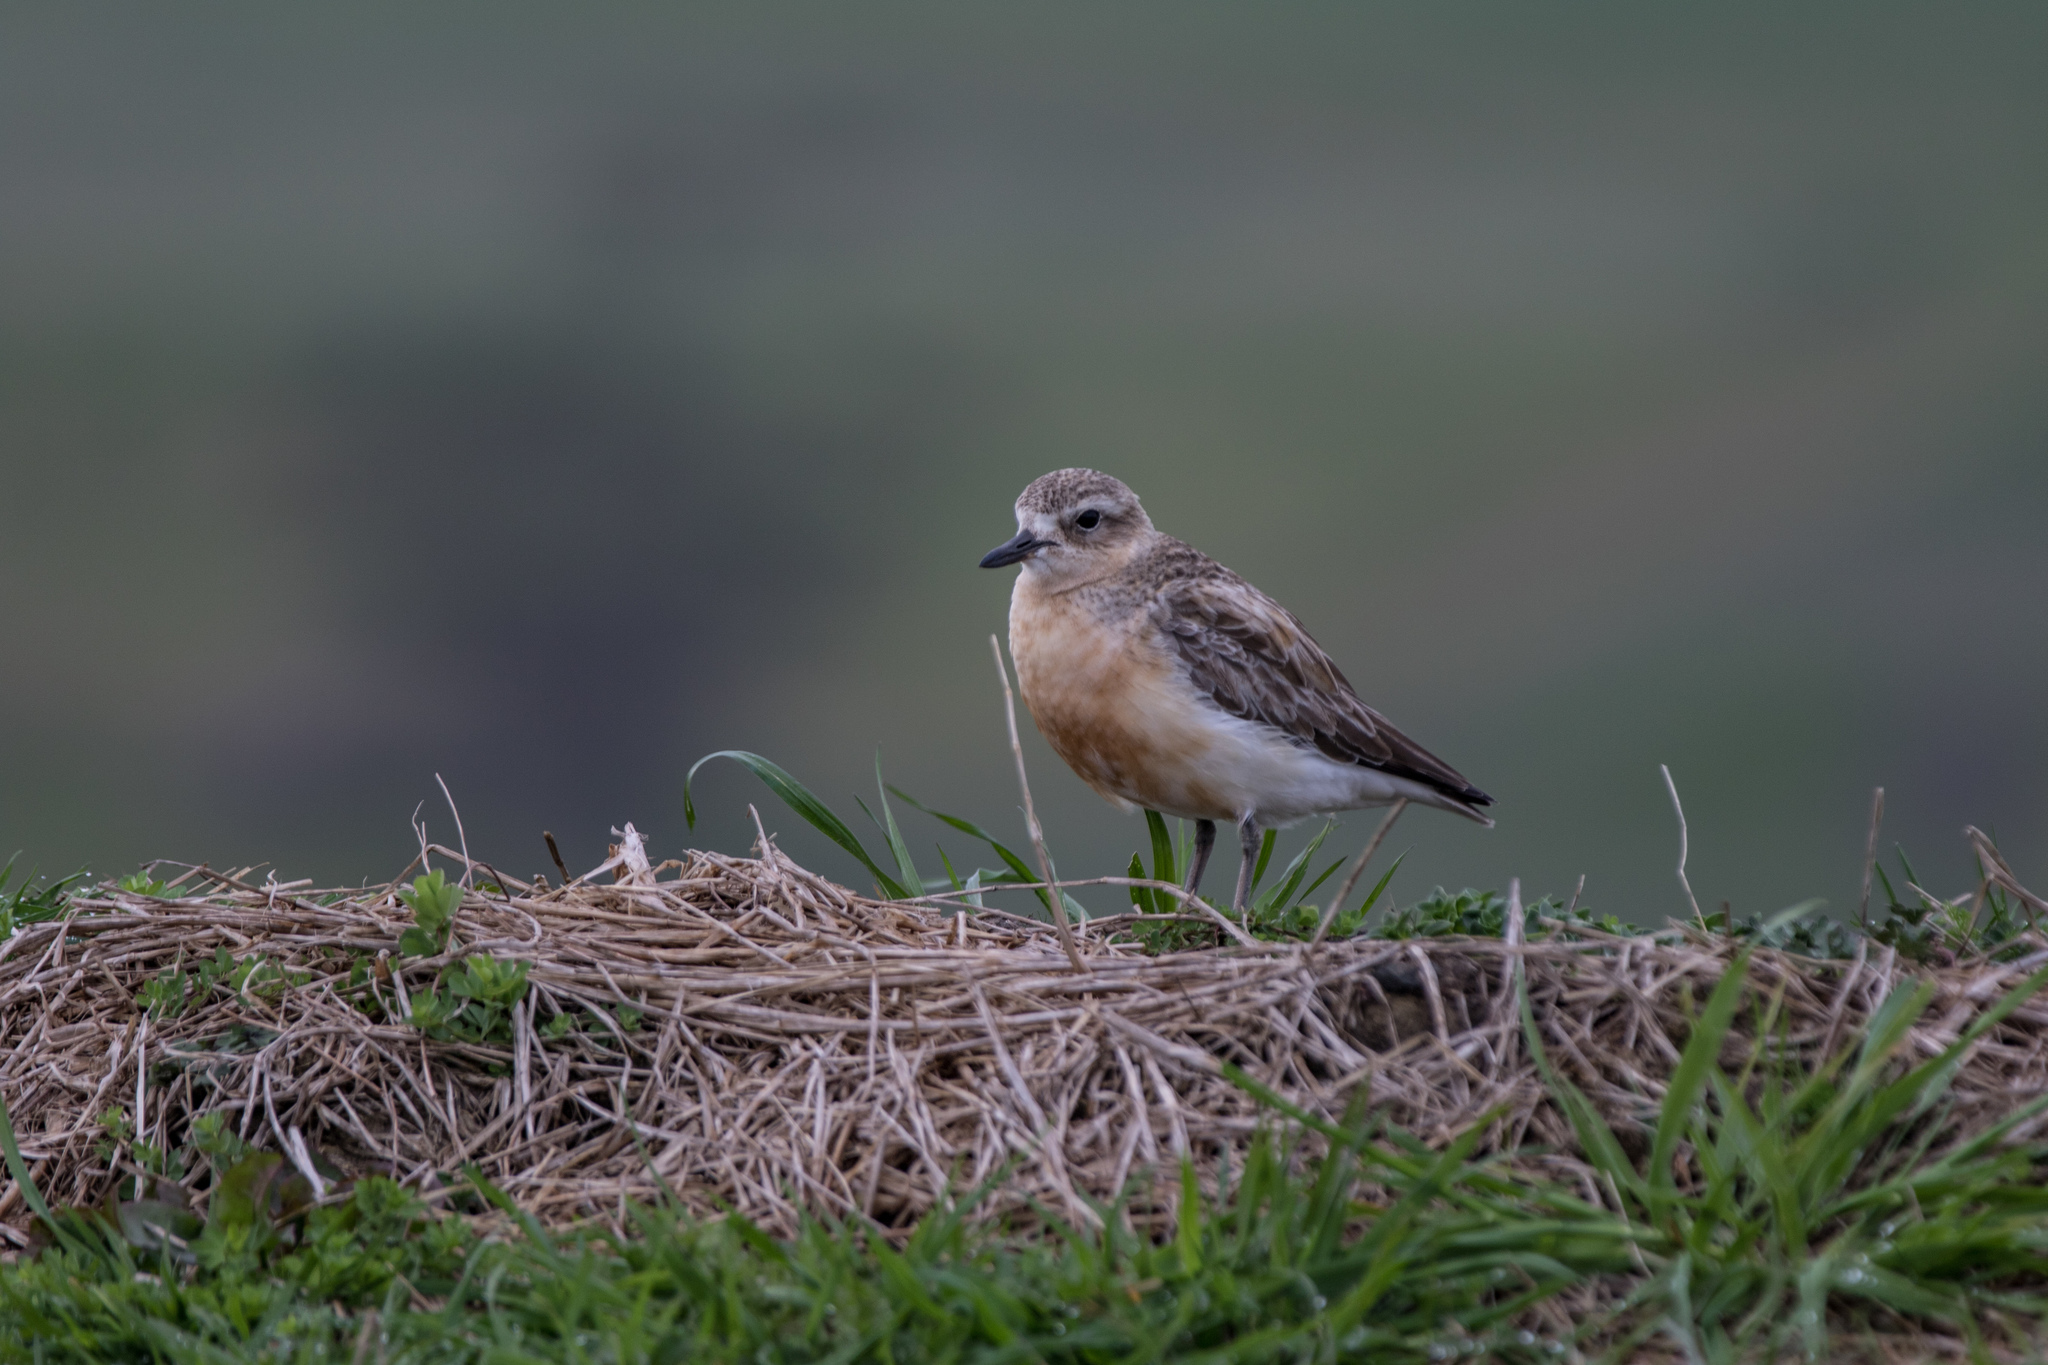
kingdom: Animalia
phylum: Chordata
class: Aves
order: Charadriiformes
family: Charadriidae
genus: Anarhynchus
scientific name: Anarhynchus
